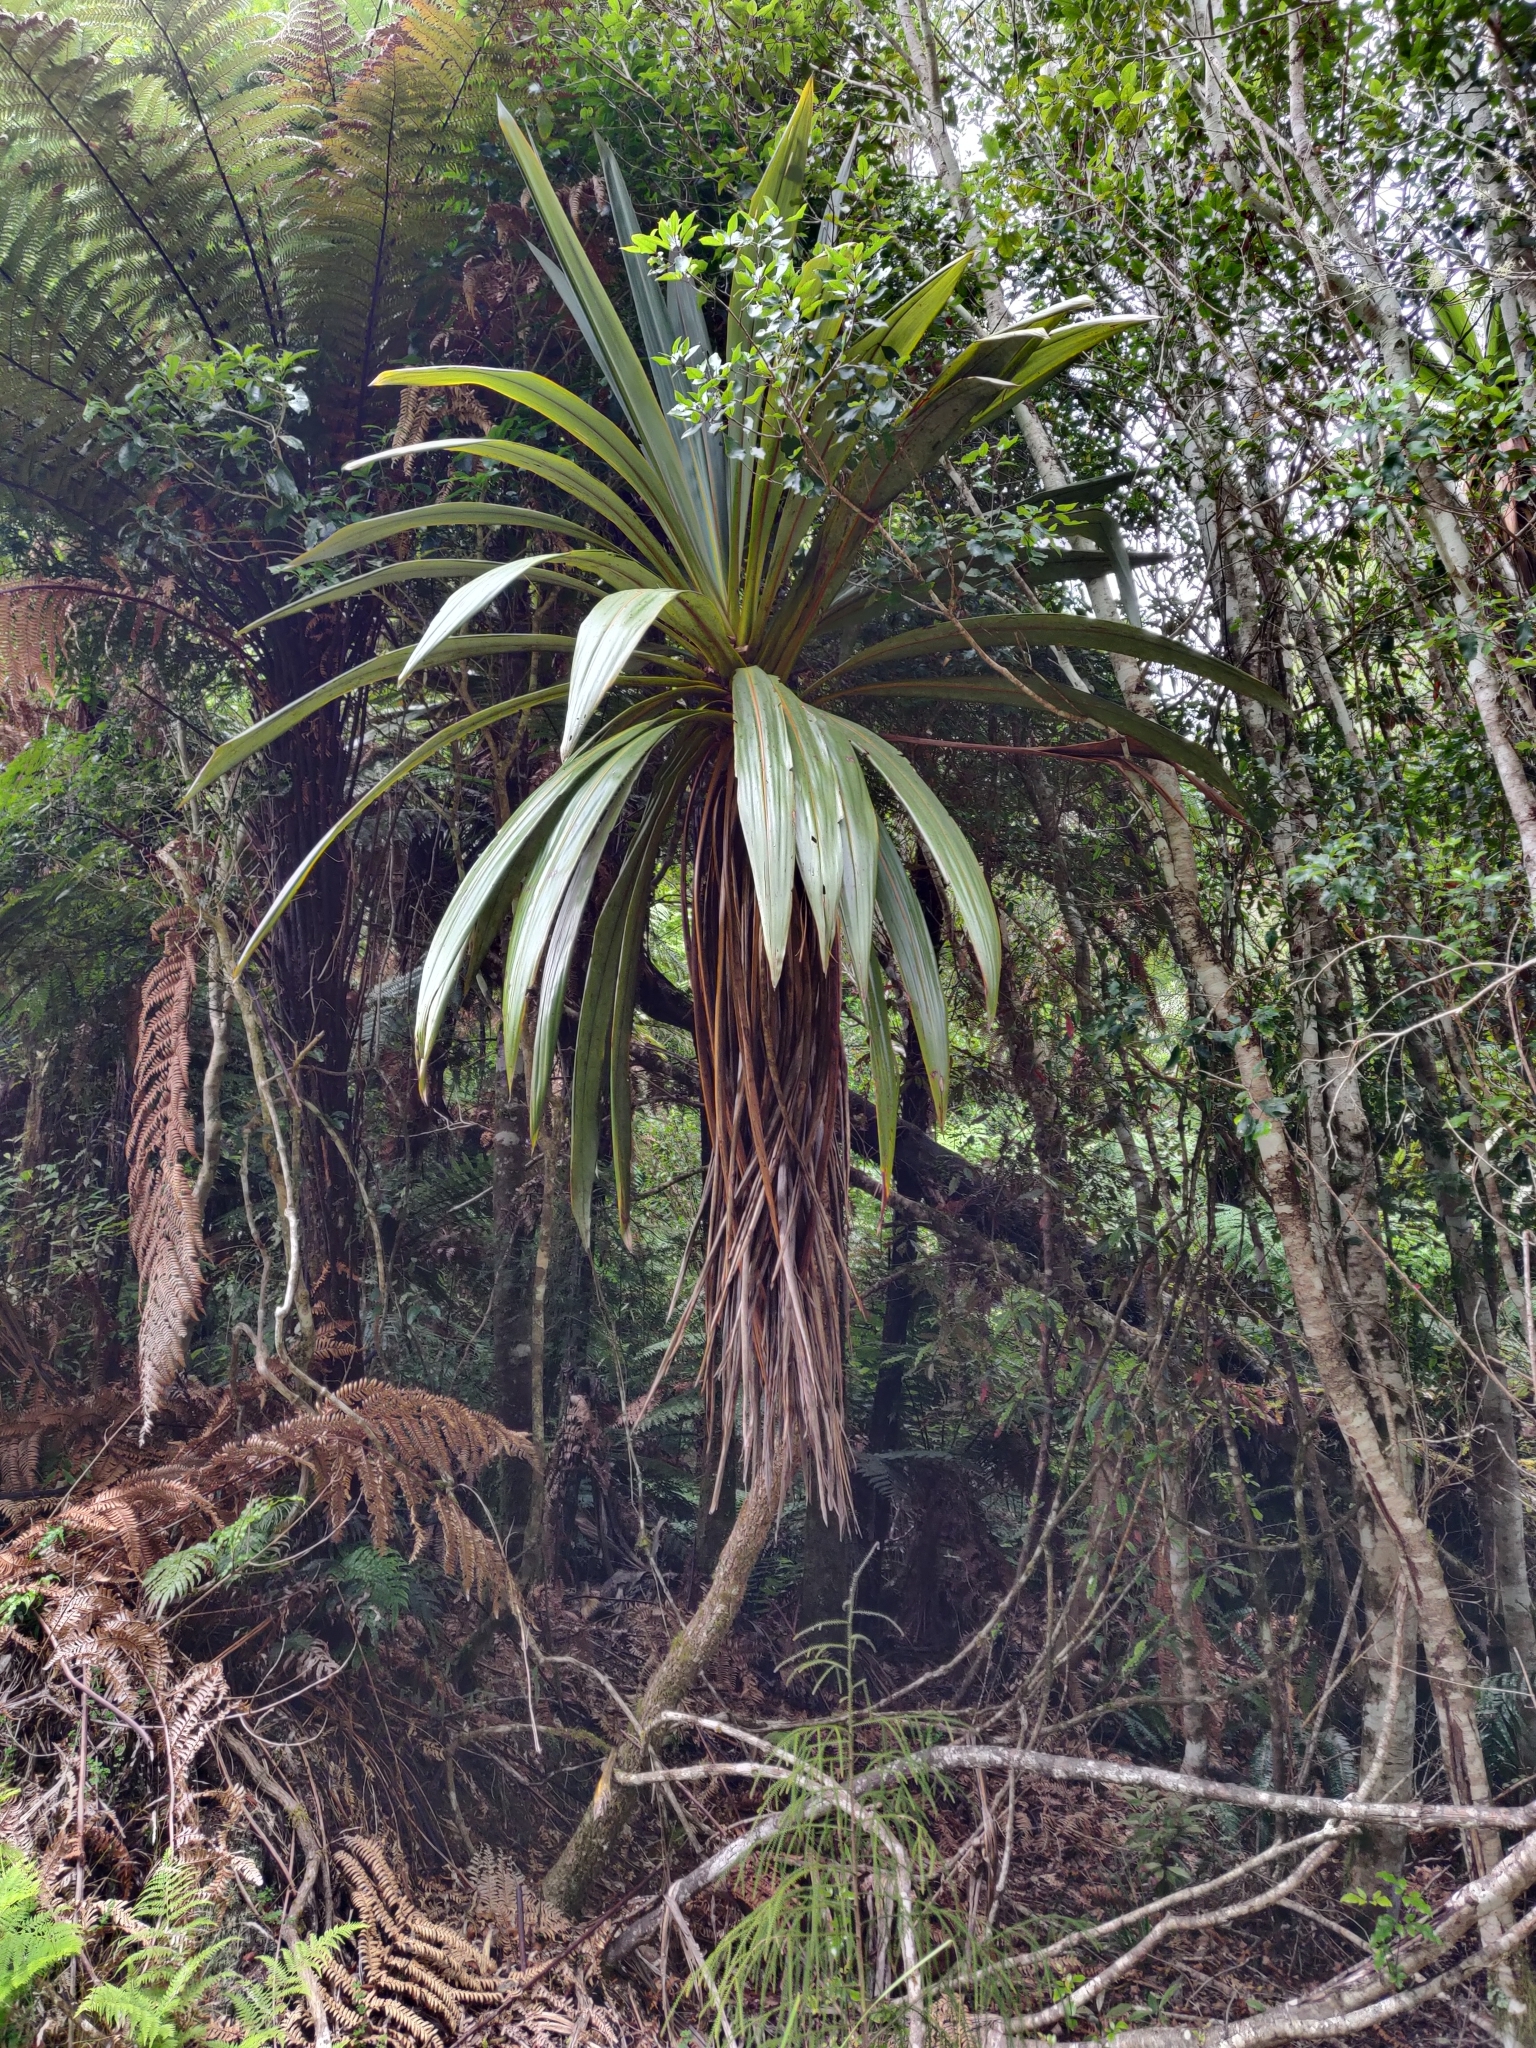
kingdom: Plantae
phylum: Tracheophyta
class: Liliopsida
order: Asparagales
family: Asparagaceae
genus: Cordyline
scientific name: Cordyline indivisa
